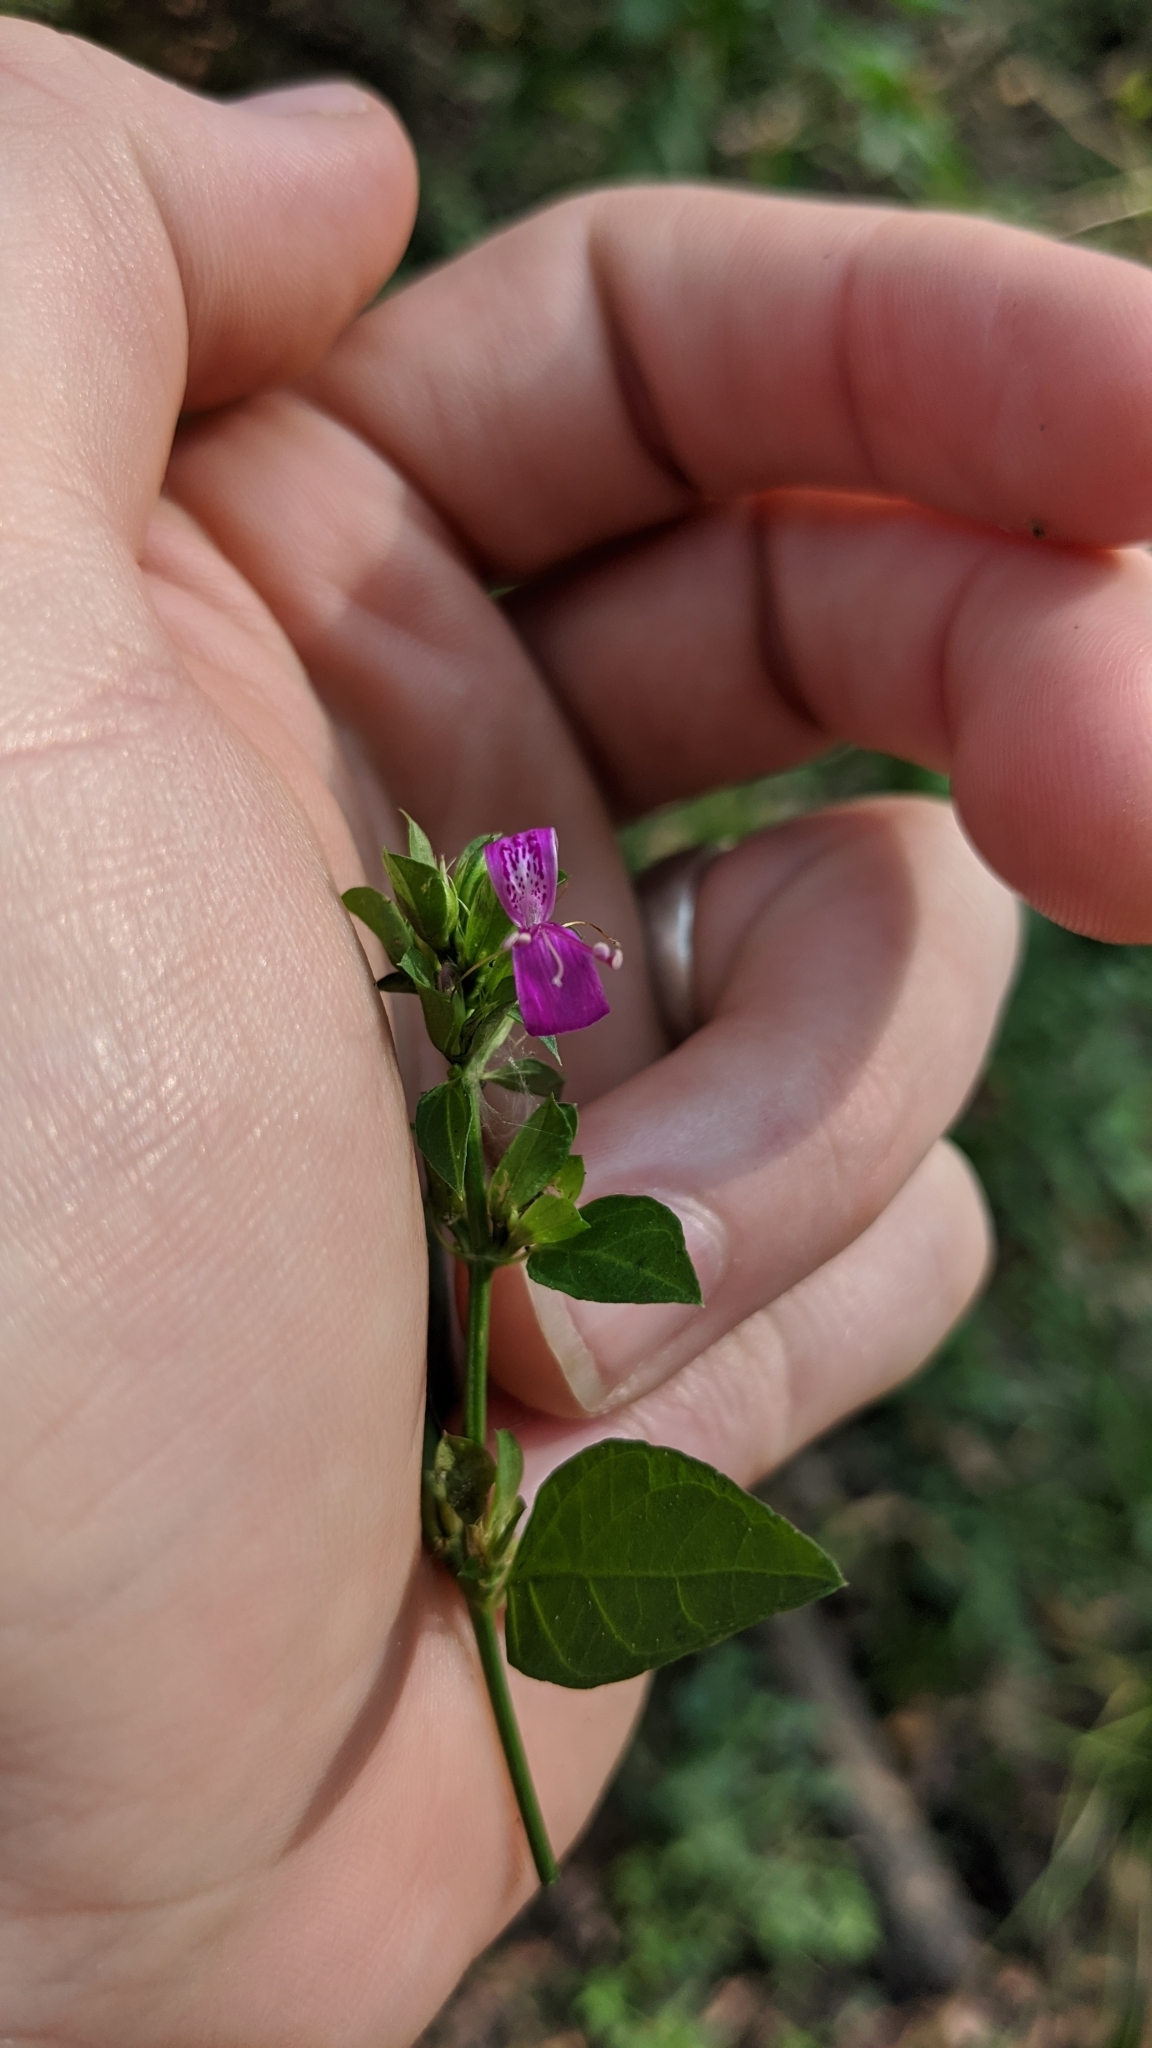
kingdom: Plantae
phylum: Tracheophyta
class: Magnoliopsida
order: Lamiales
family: Acanthaceae
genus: Dicliptera
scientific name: Dicliptera brachiata
